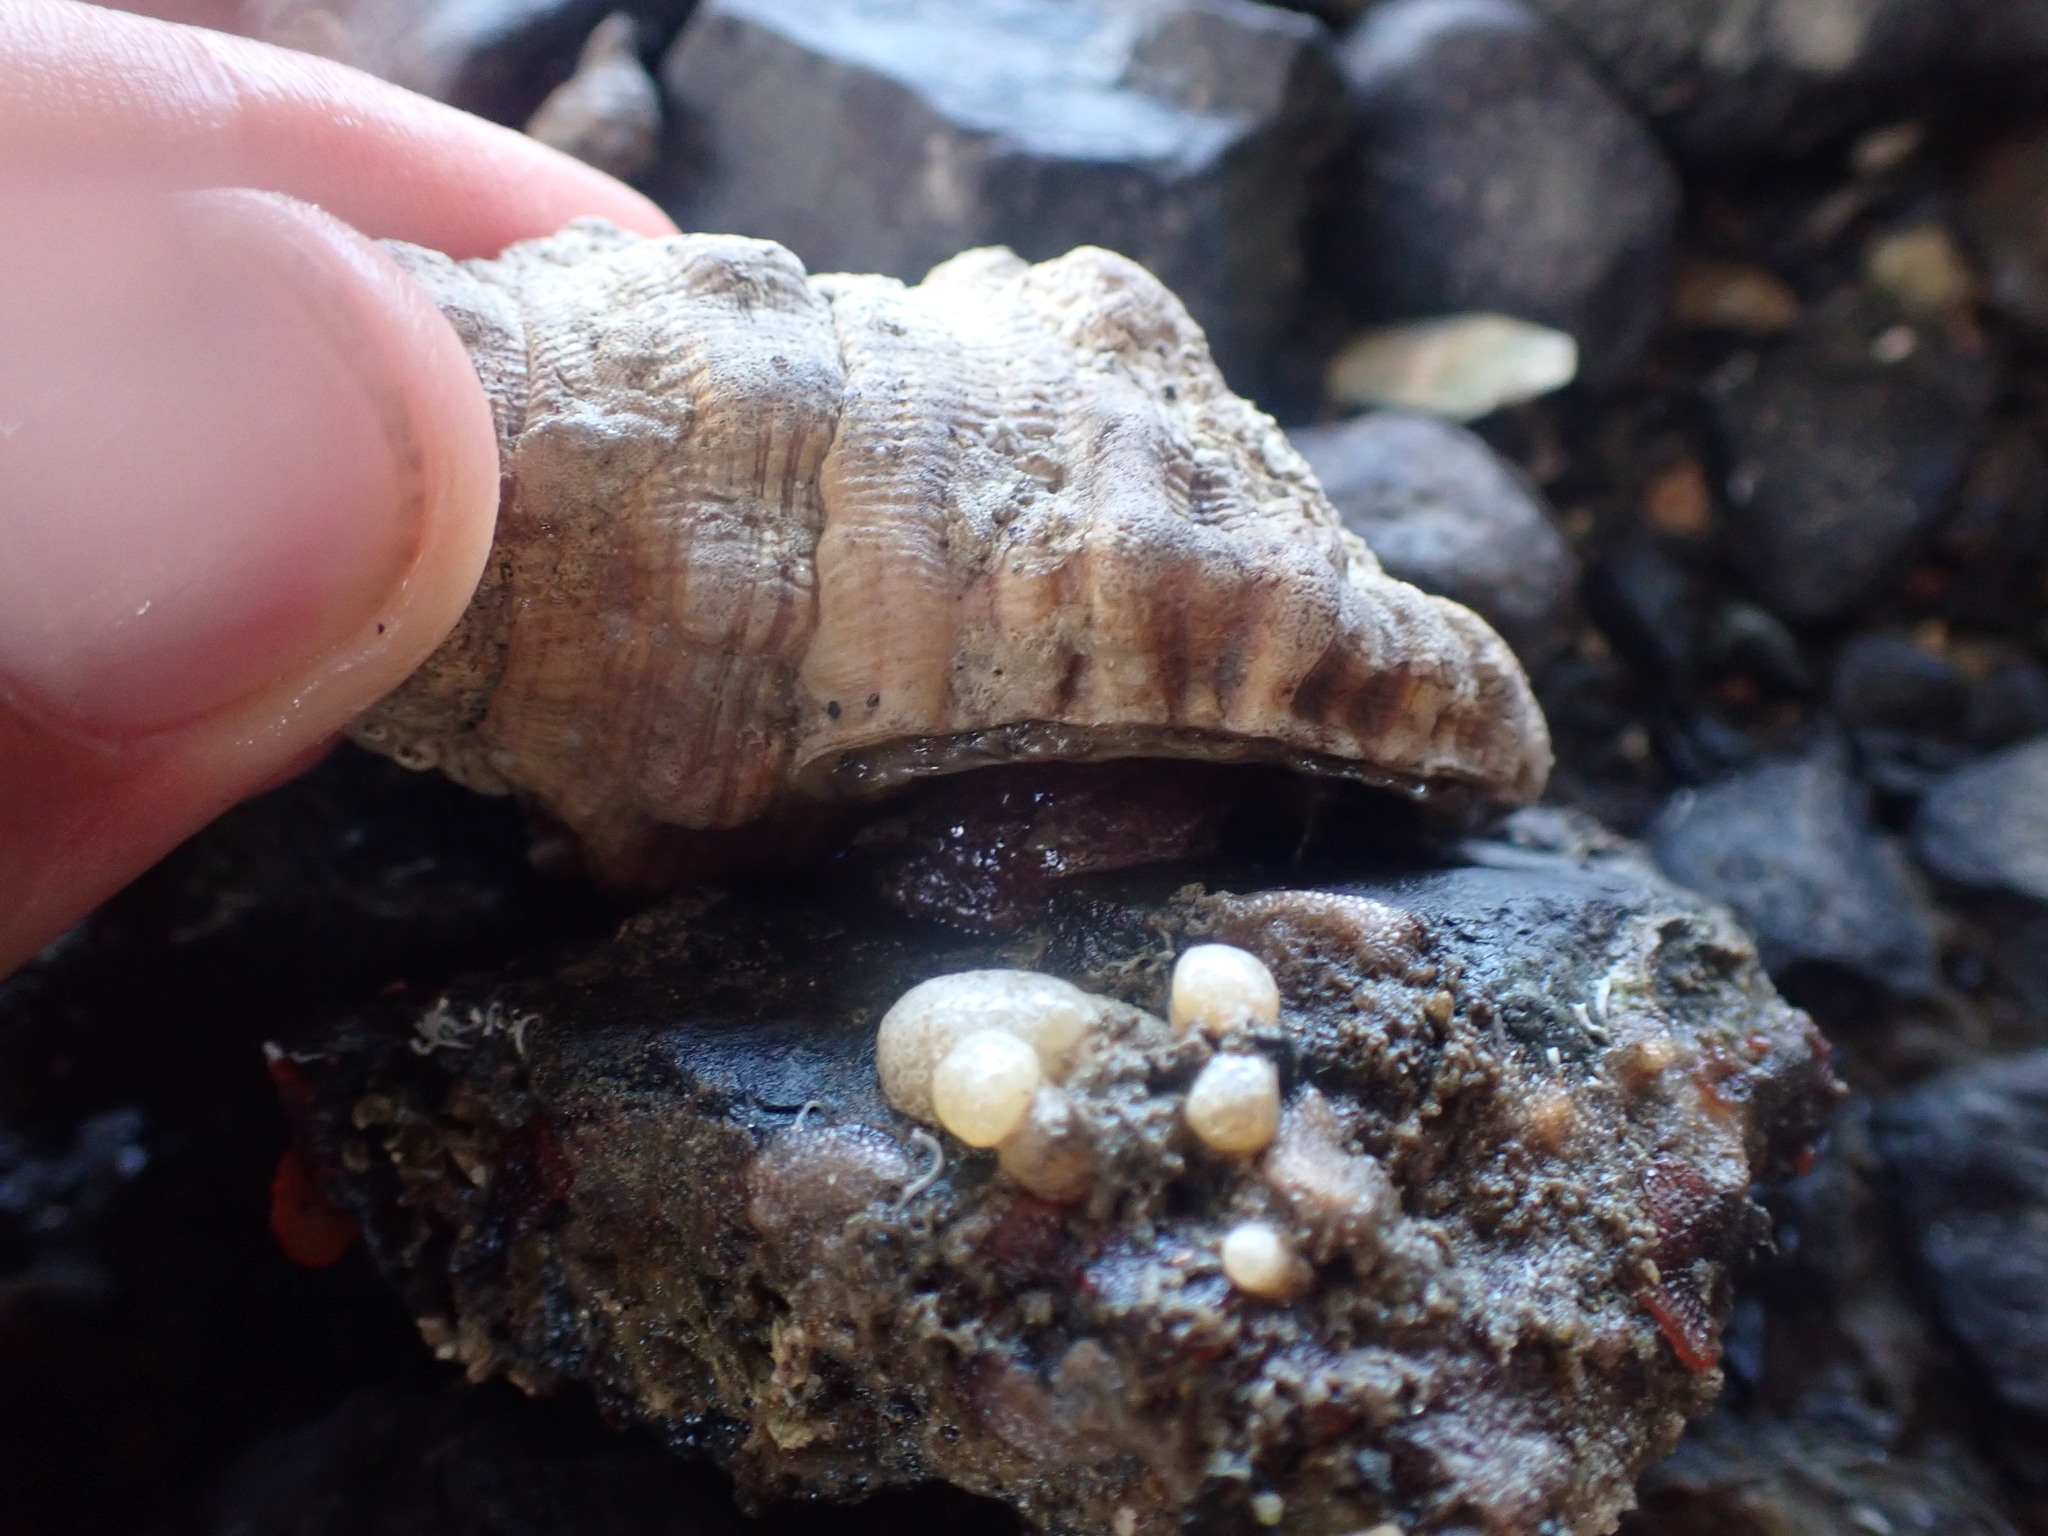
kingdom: Animalia
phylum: Mollusca
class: Gastropoda
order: Littorinimorpha
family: Cymatiidae
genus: Cabestana
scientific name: Cabestana spengleri
